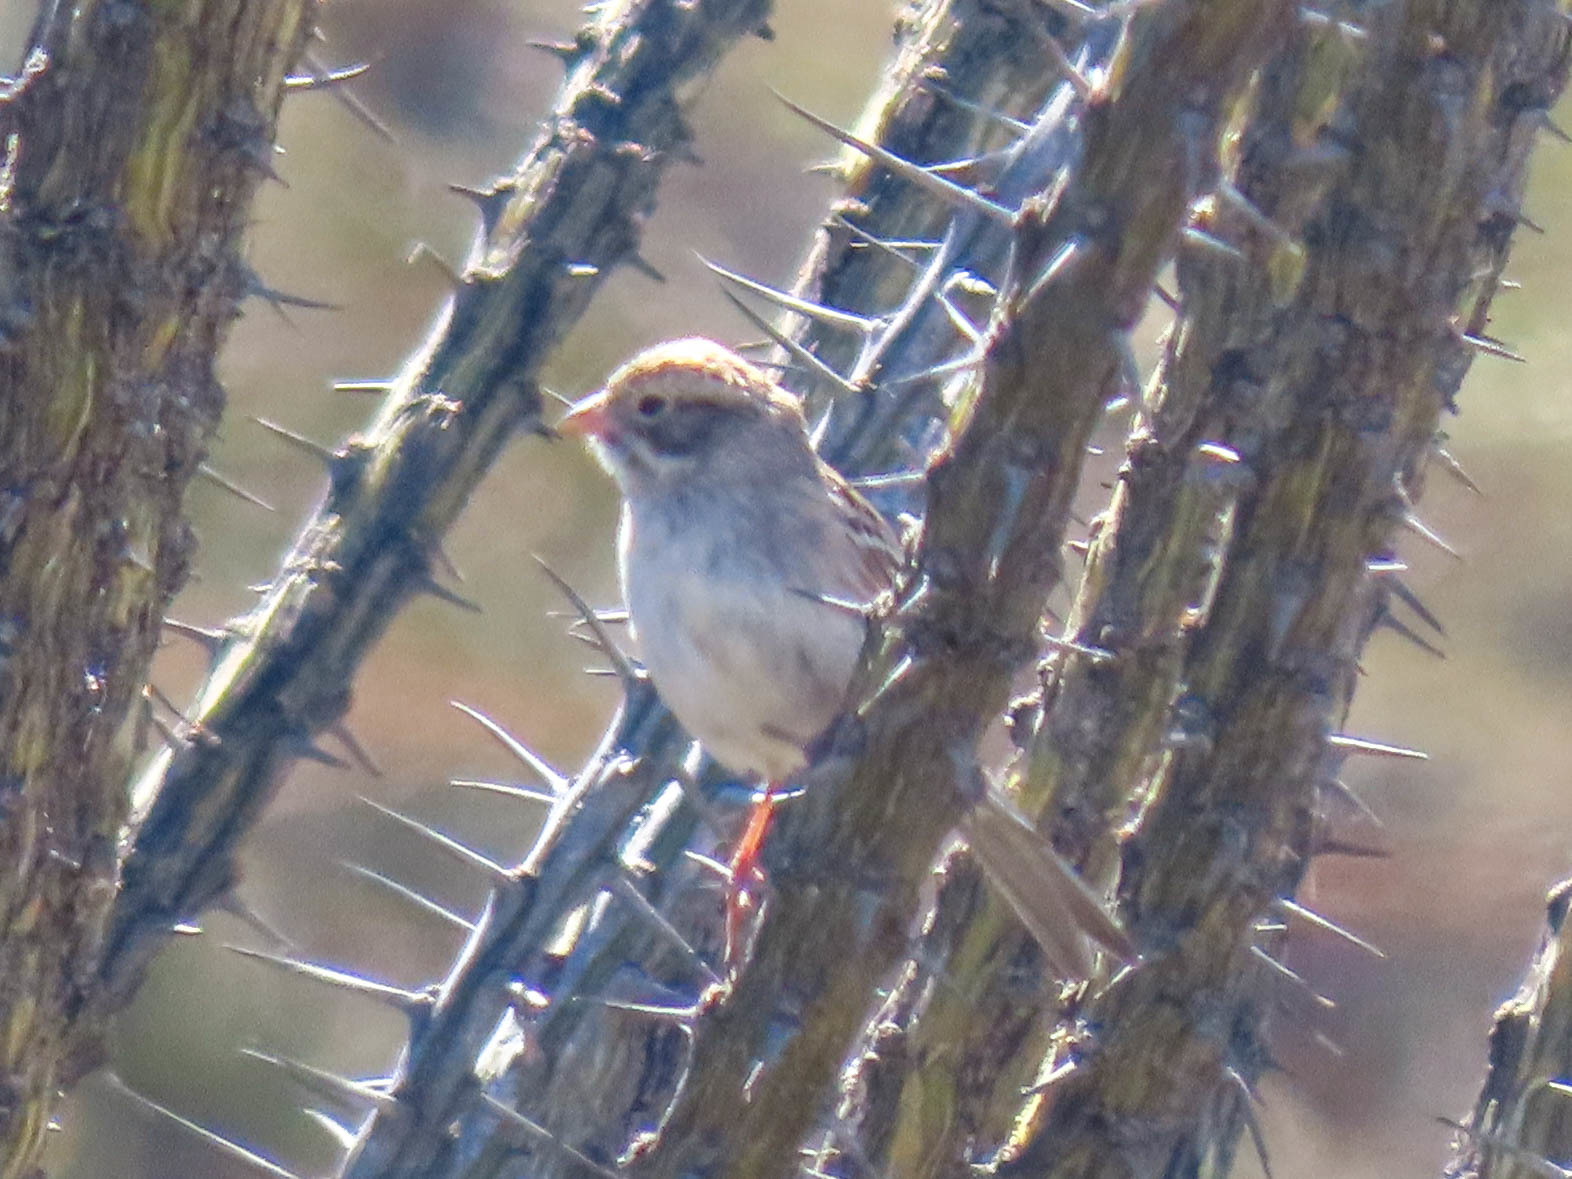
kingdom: Animalia
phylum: Chordata
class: Aves
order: Passeriformes
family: Passerellidae
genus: Spizella
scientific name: Spizella breweri
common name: Brewer's sparrow
